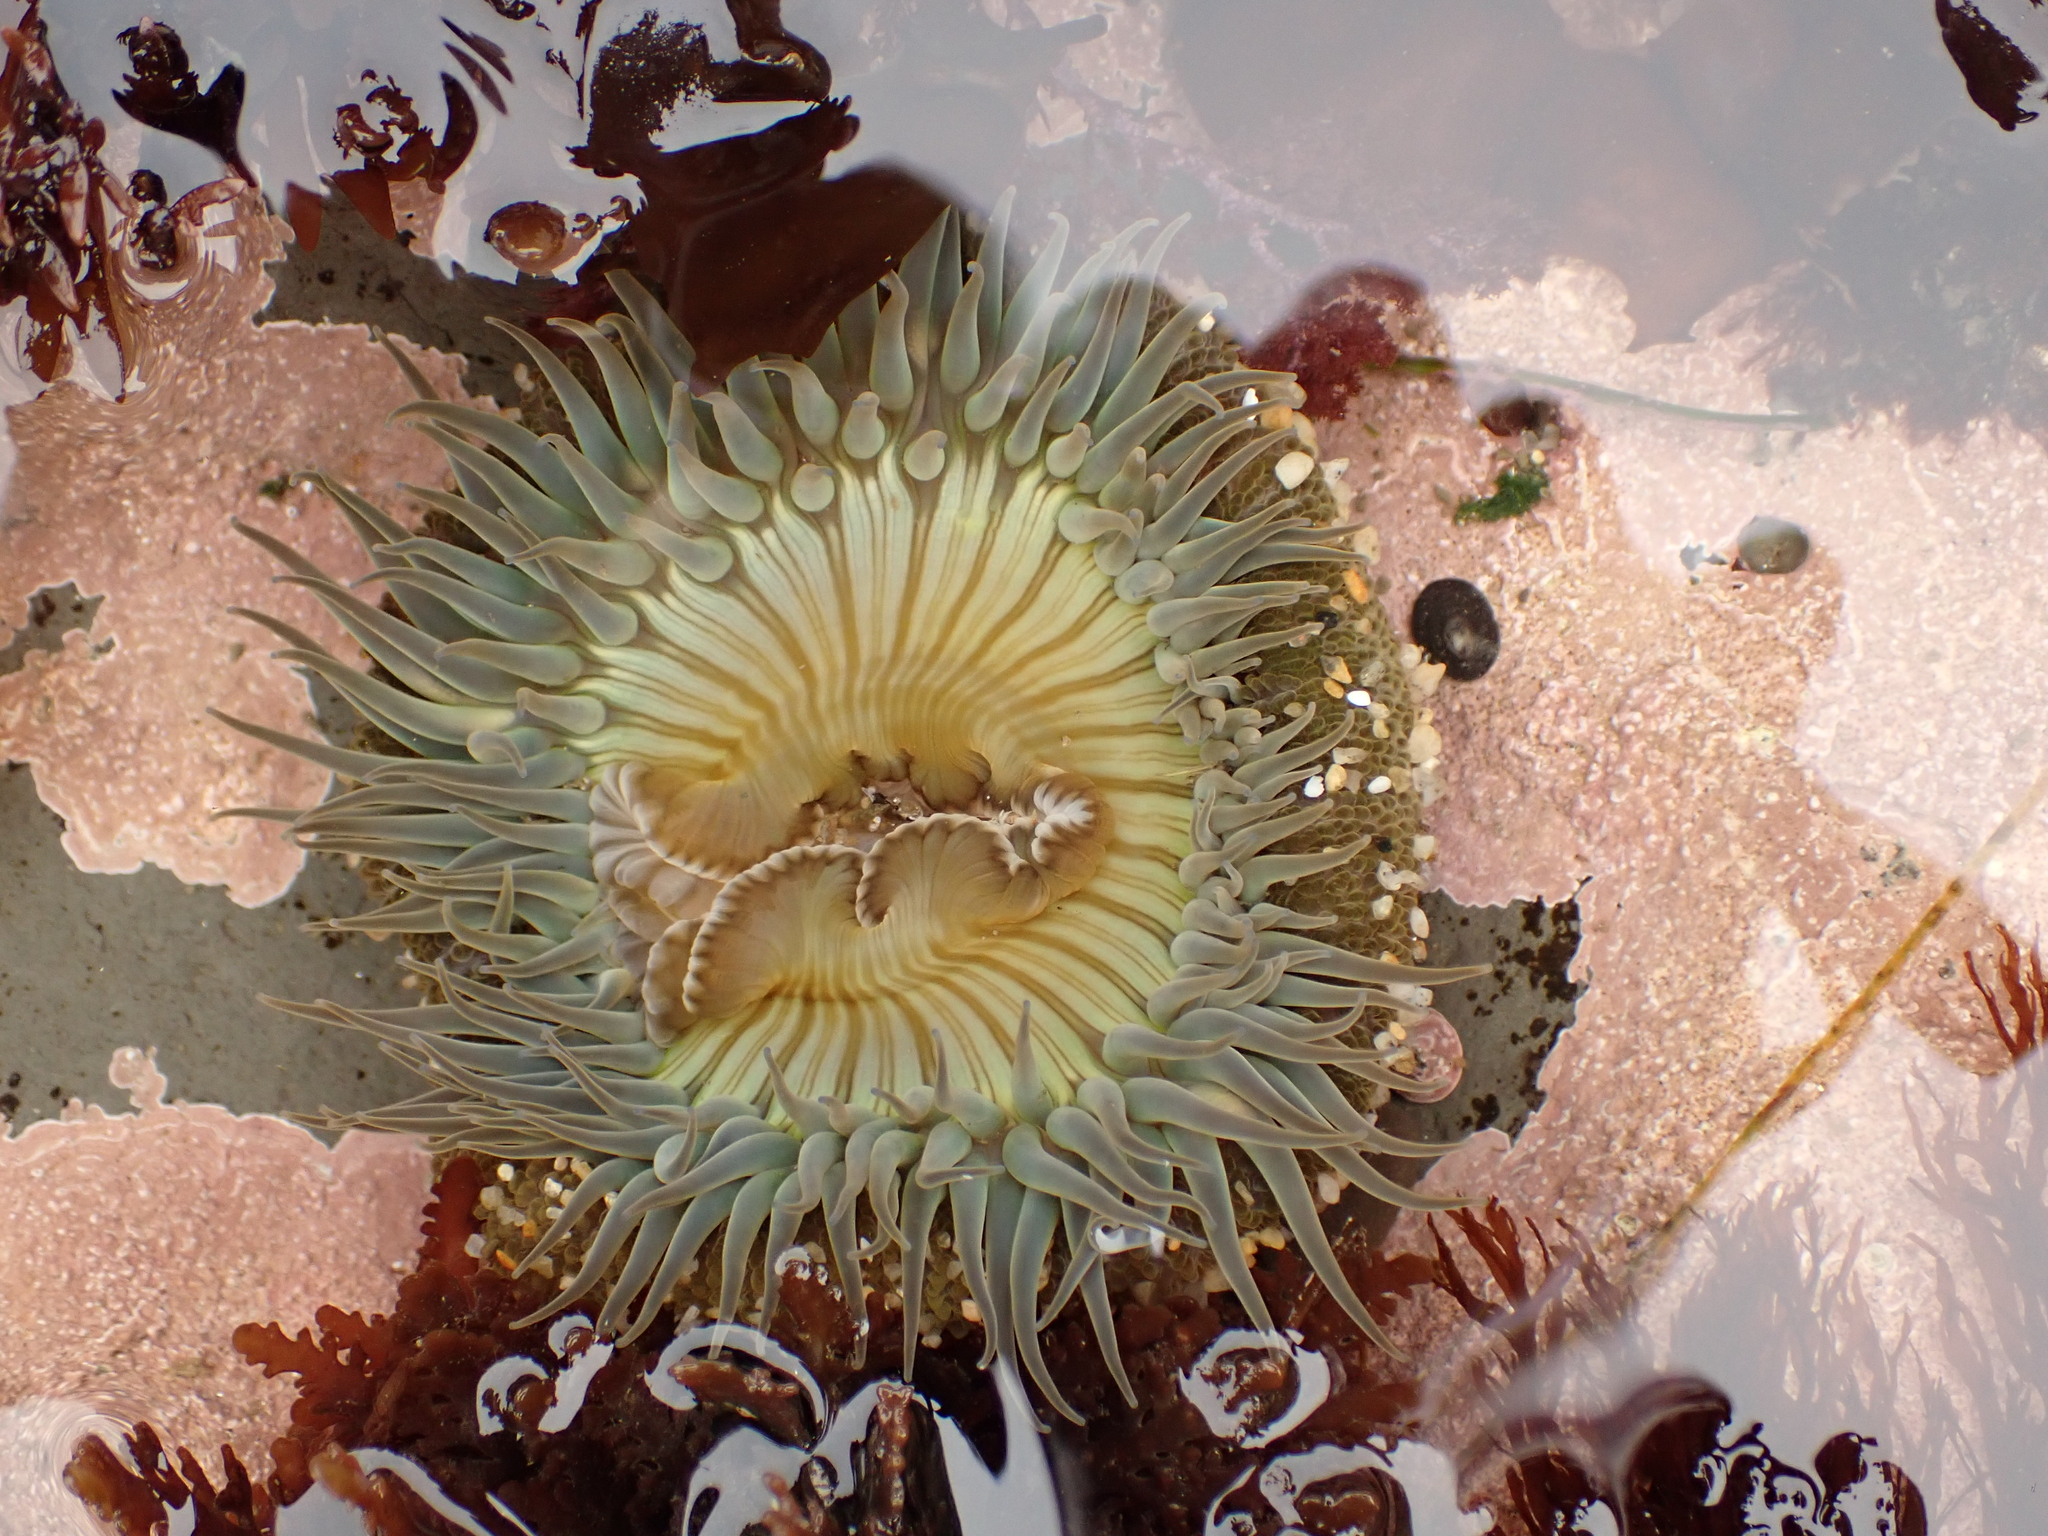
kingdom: Animalia
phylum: Cnidaria
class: Anthozoa
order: Actiniaria
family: Actiniidae
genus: Anthopleura
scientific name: Anthopleura sola
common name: Sun anemone
